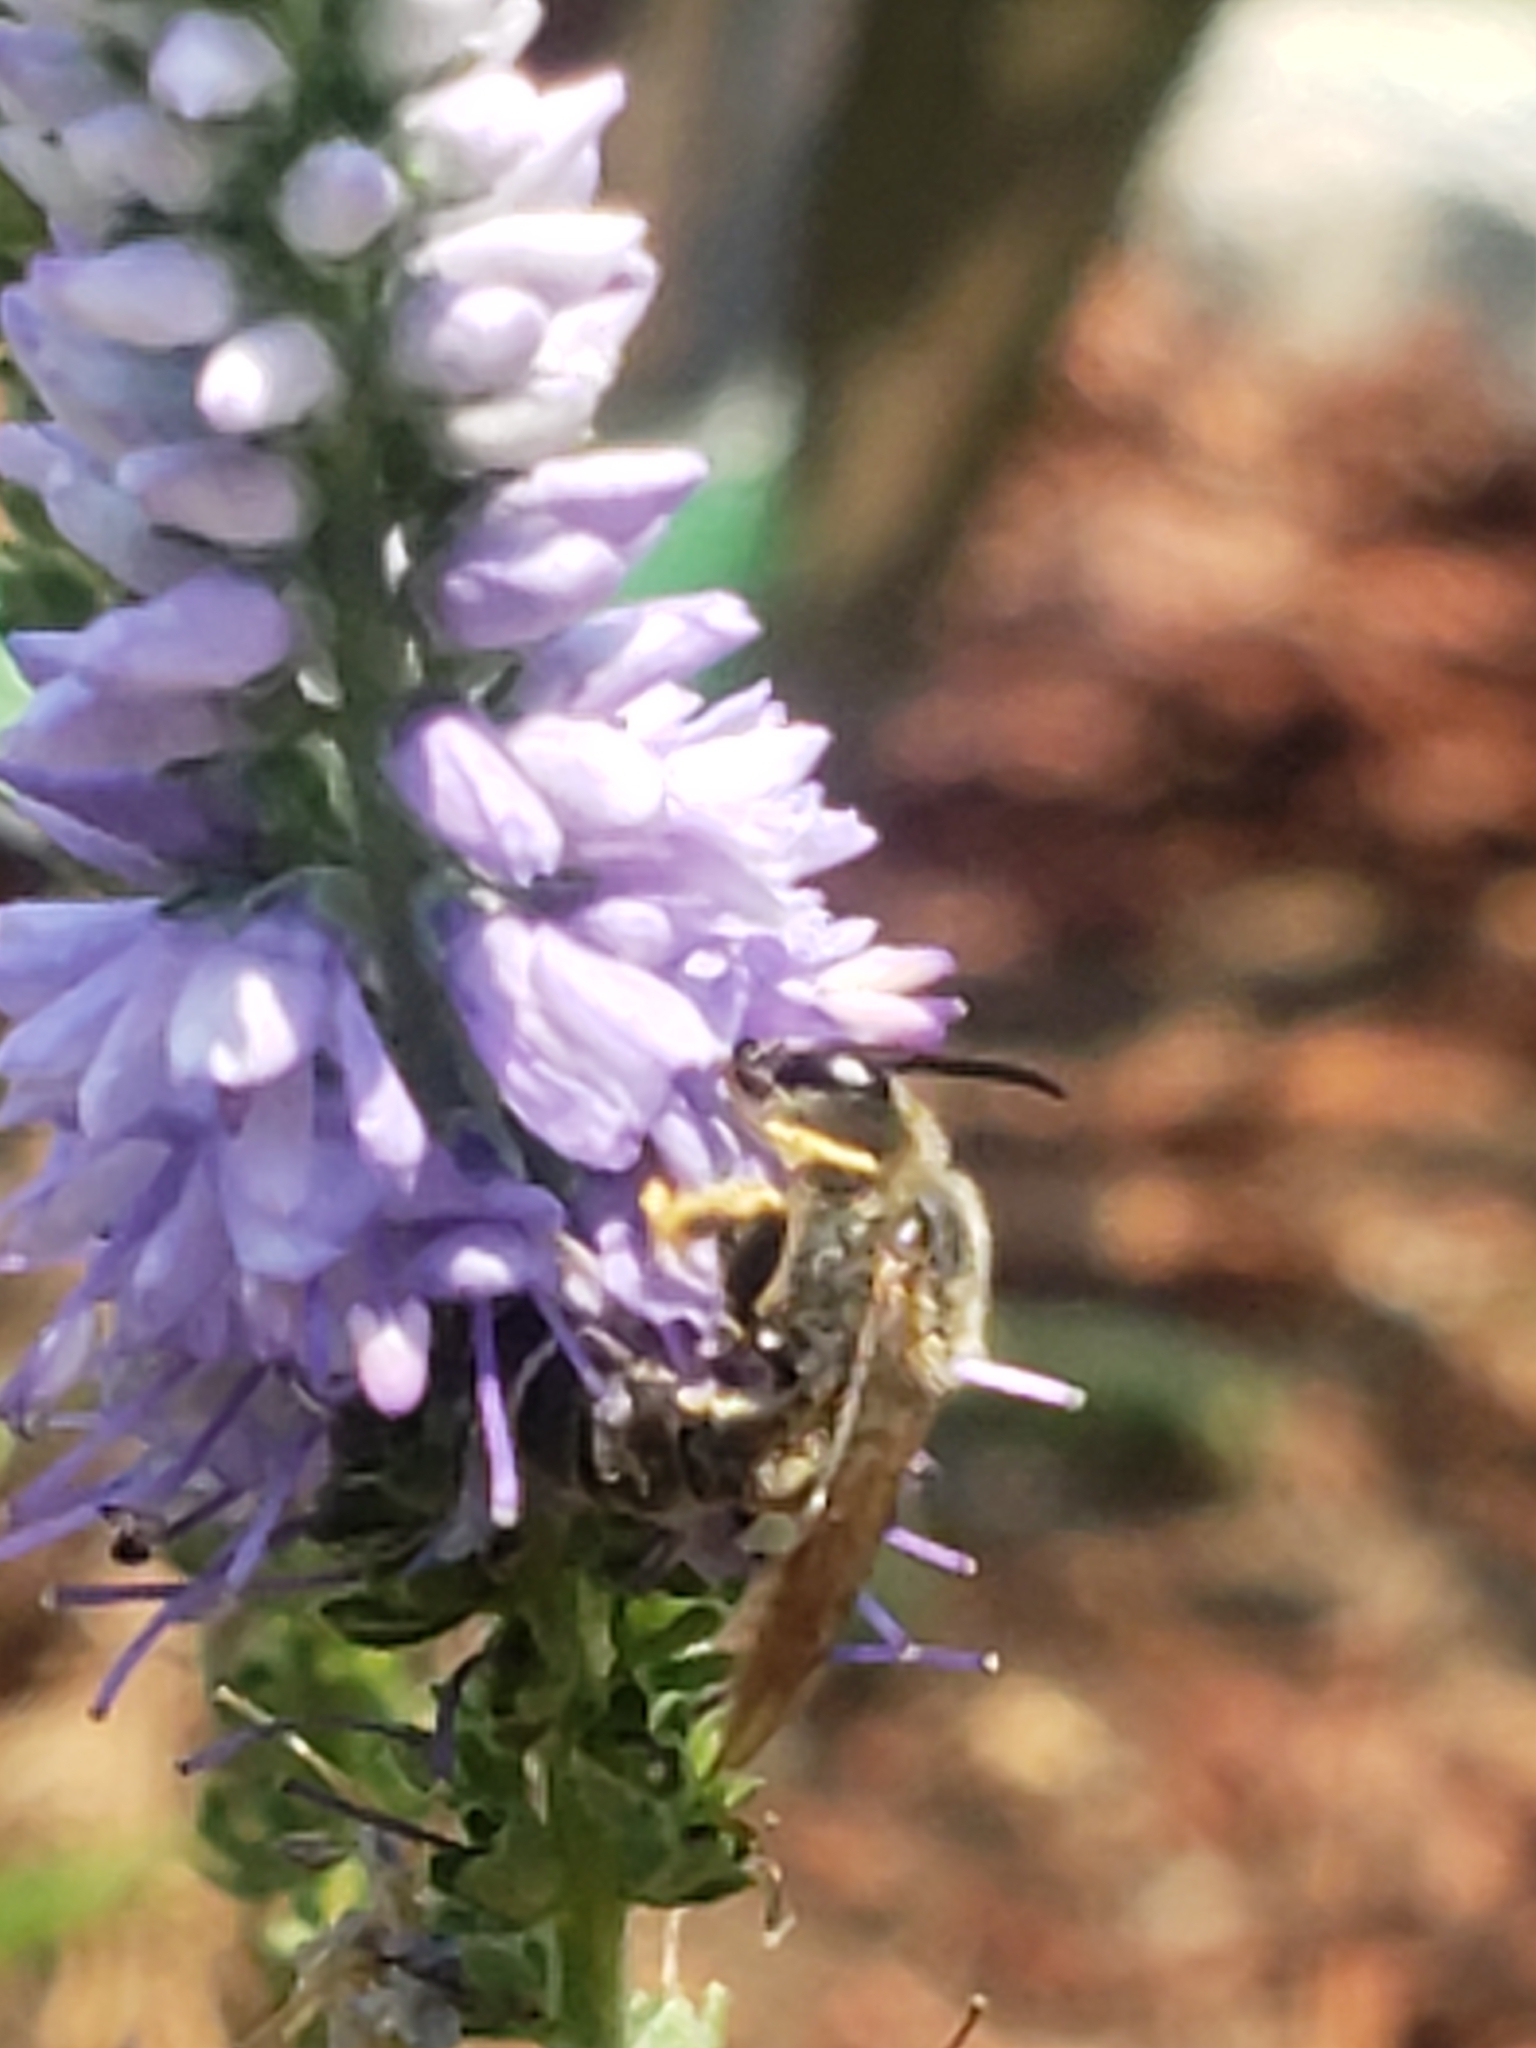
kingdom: Animalia
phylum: Arthropoda
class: Insecta
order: Hymenoptera
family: Halictidae
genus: Halictus
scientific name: Halictus rubicundus
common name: Orange-legged furrow bee
